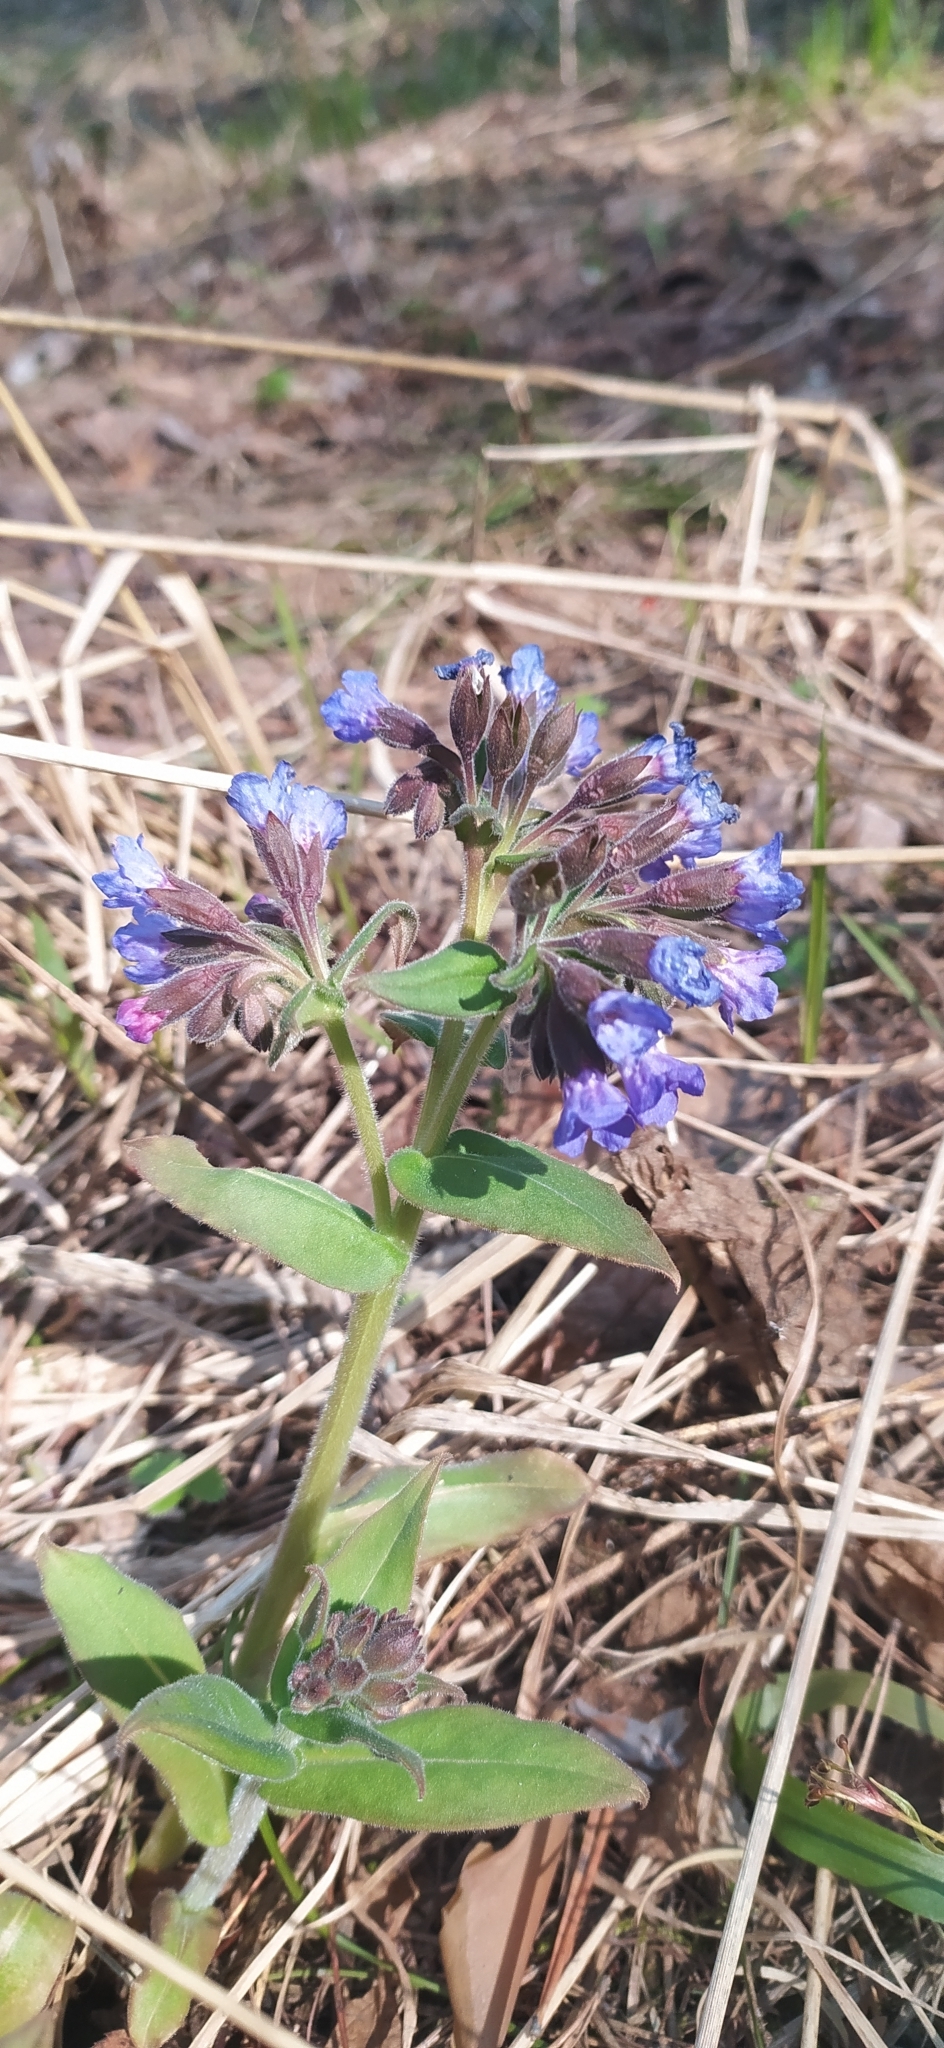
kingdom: Plantae
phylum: Tracheophyta
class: Magnoliopsida
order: Boraginales
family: Boraginaceae
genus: Pulmonaria
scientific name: Pulmonaria mollis
